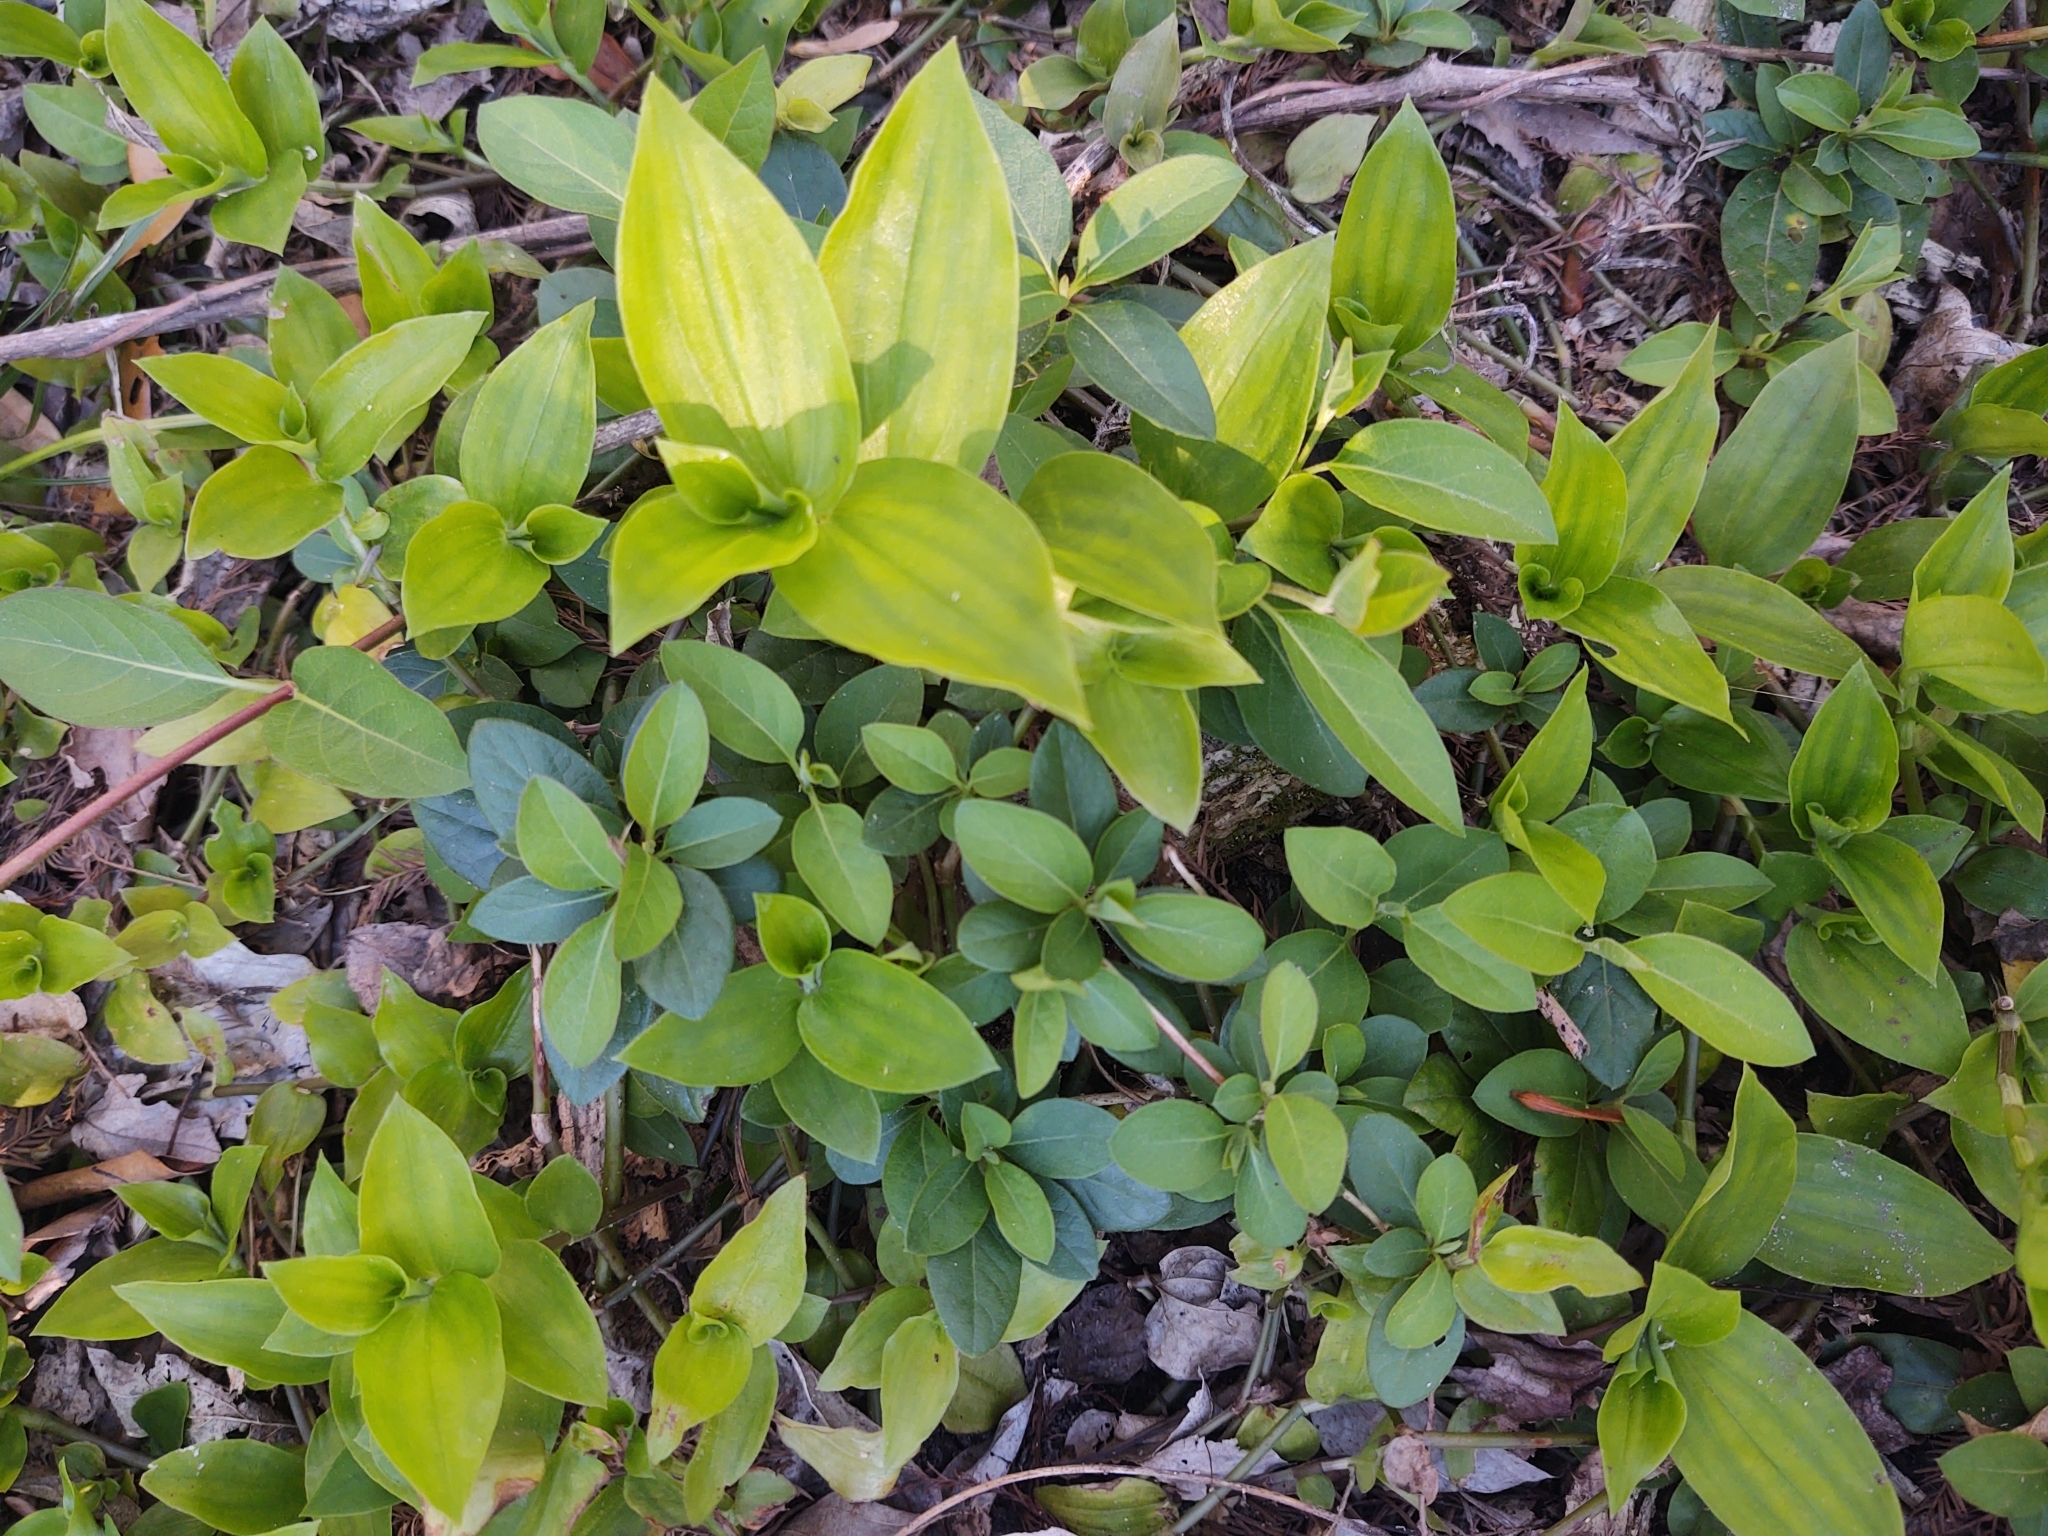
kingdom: Plantae
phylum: Tracheophyta
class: Liliopsida
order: Commelinales
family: Commelinaceae
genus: Tradescantia
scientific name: Tradescantia fluminensis
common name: Wandering-jew
